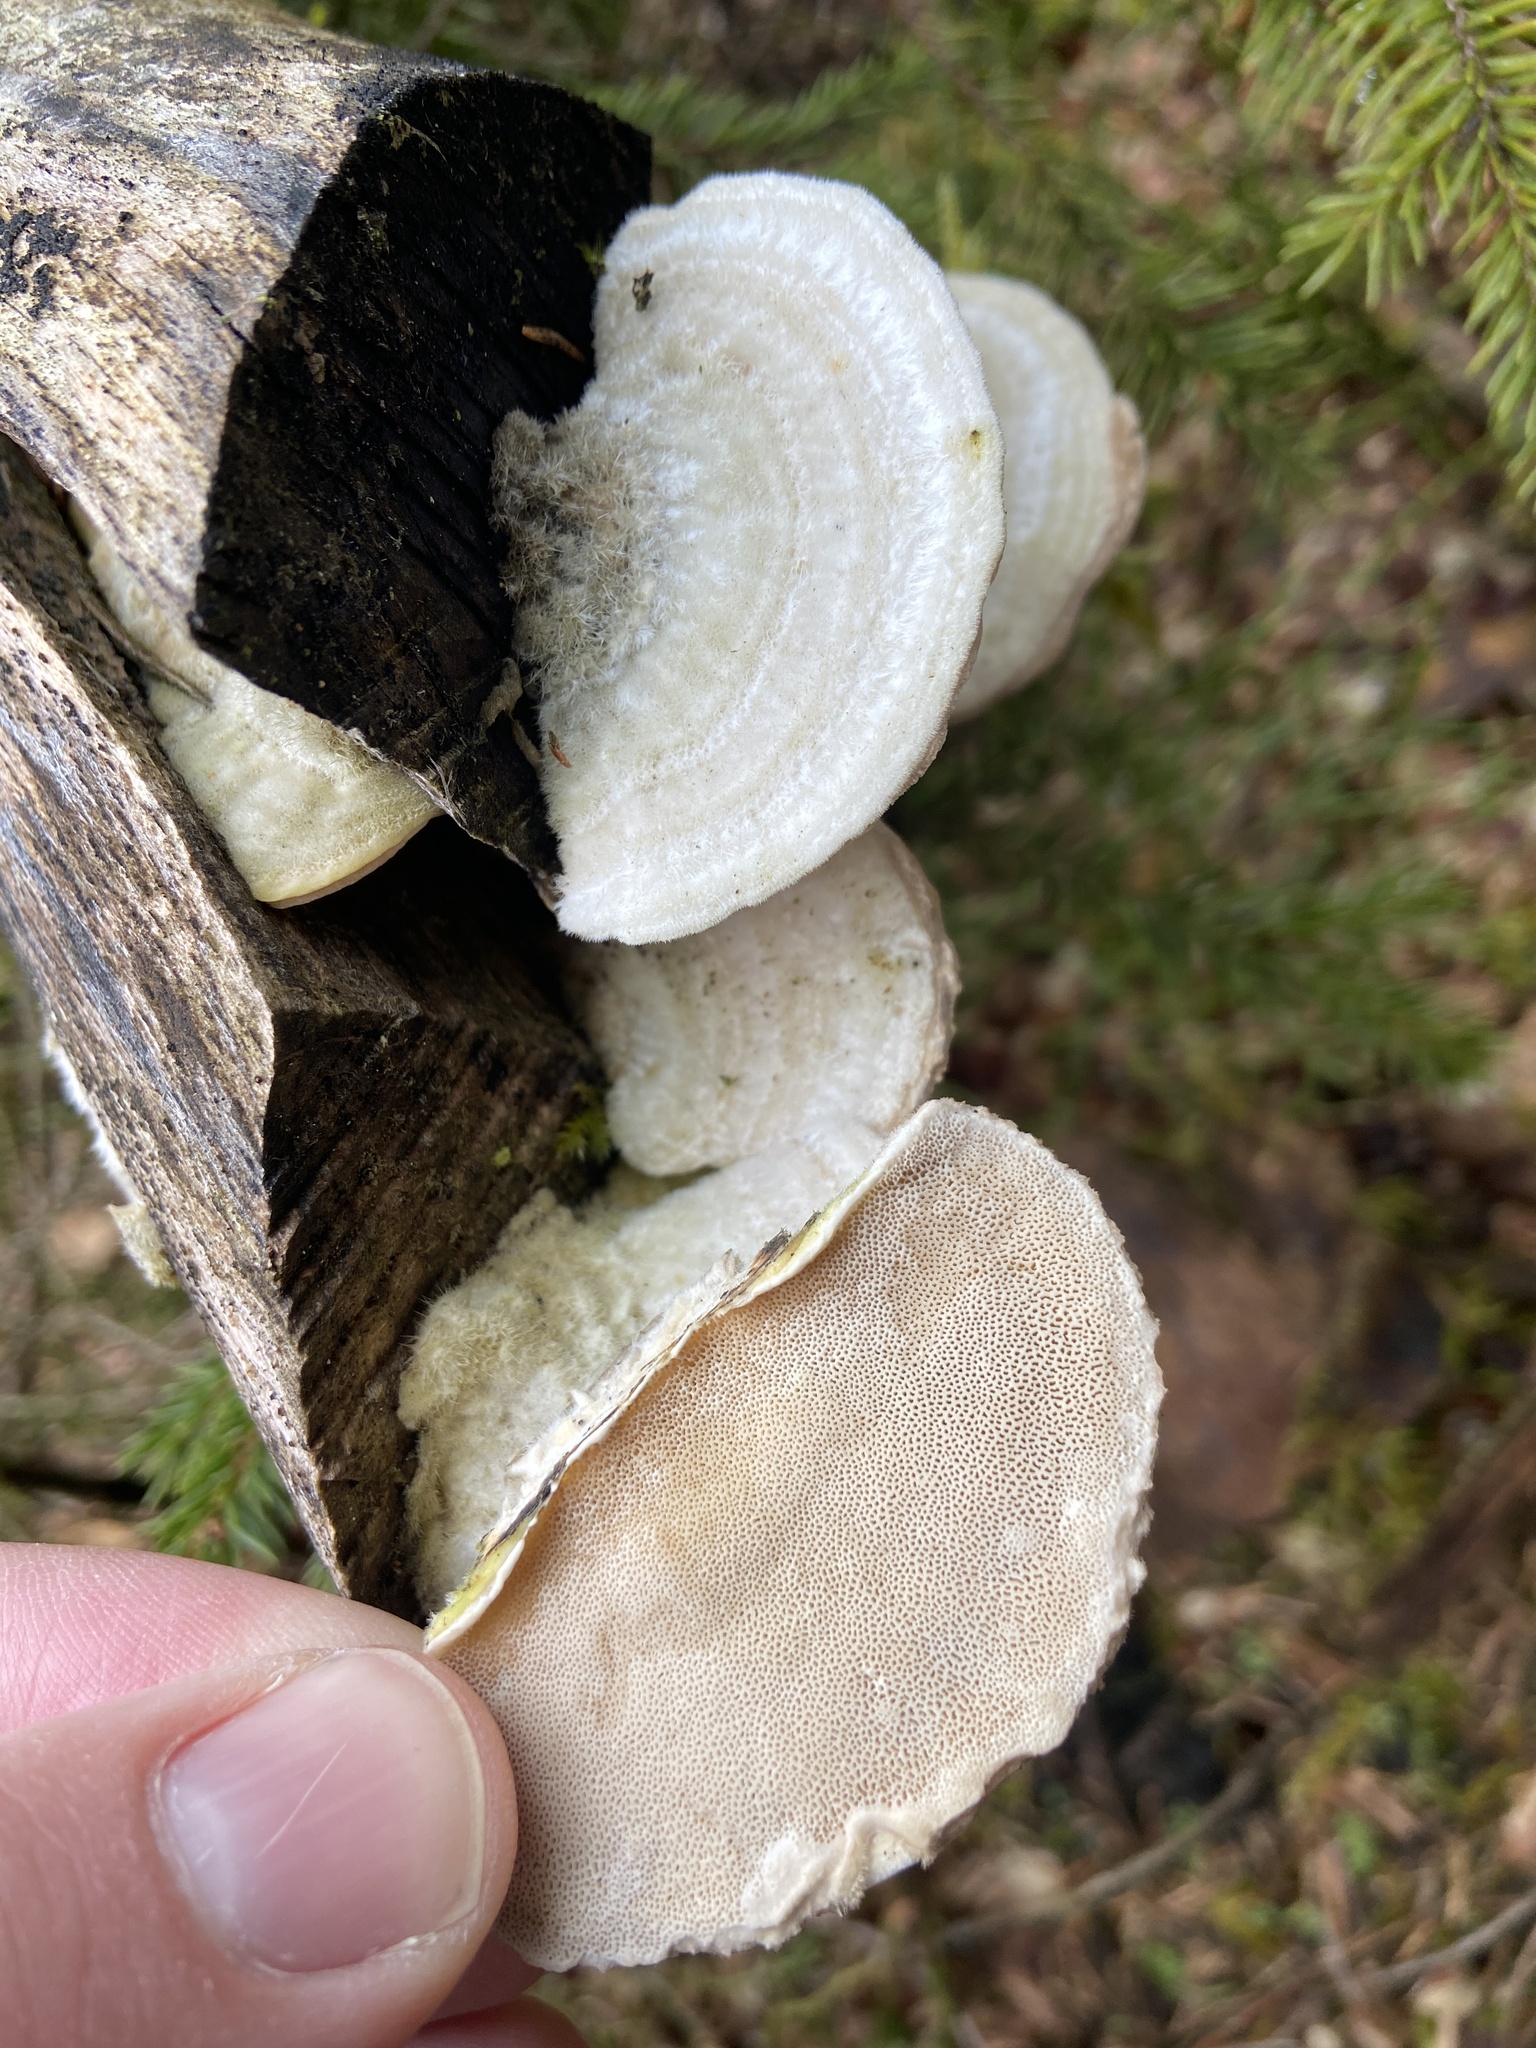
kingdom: Fungi
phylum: Basidiomycota
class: Agaricomycetes
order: Polyporales
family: Polyporaceae
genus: Trametes
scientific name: Trametes hirsuta
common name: Hairy bracket
